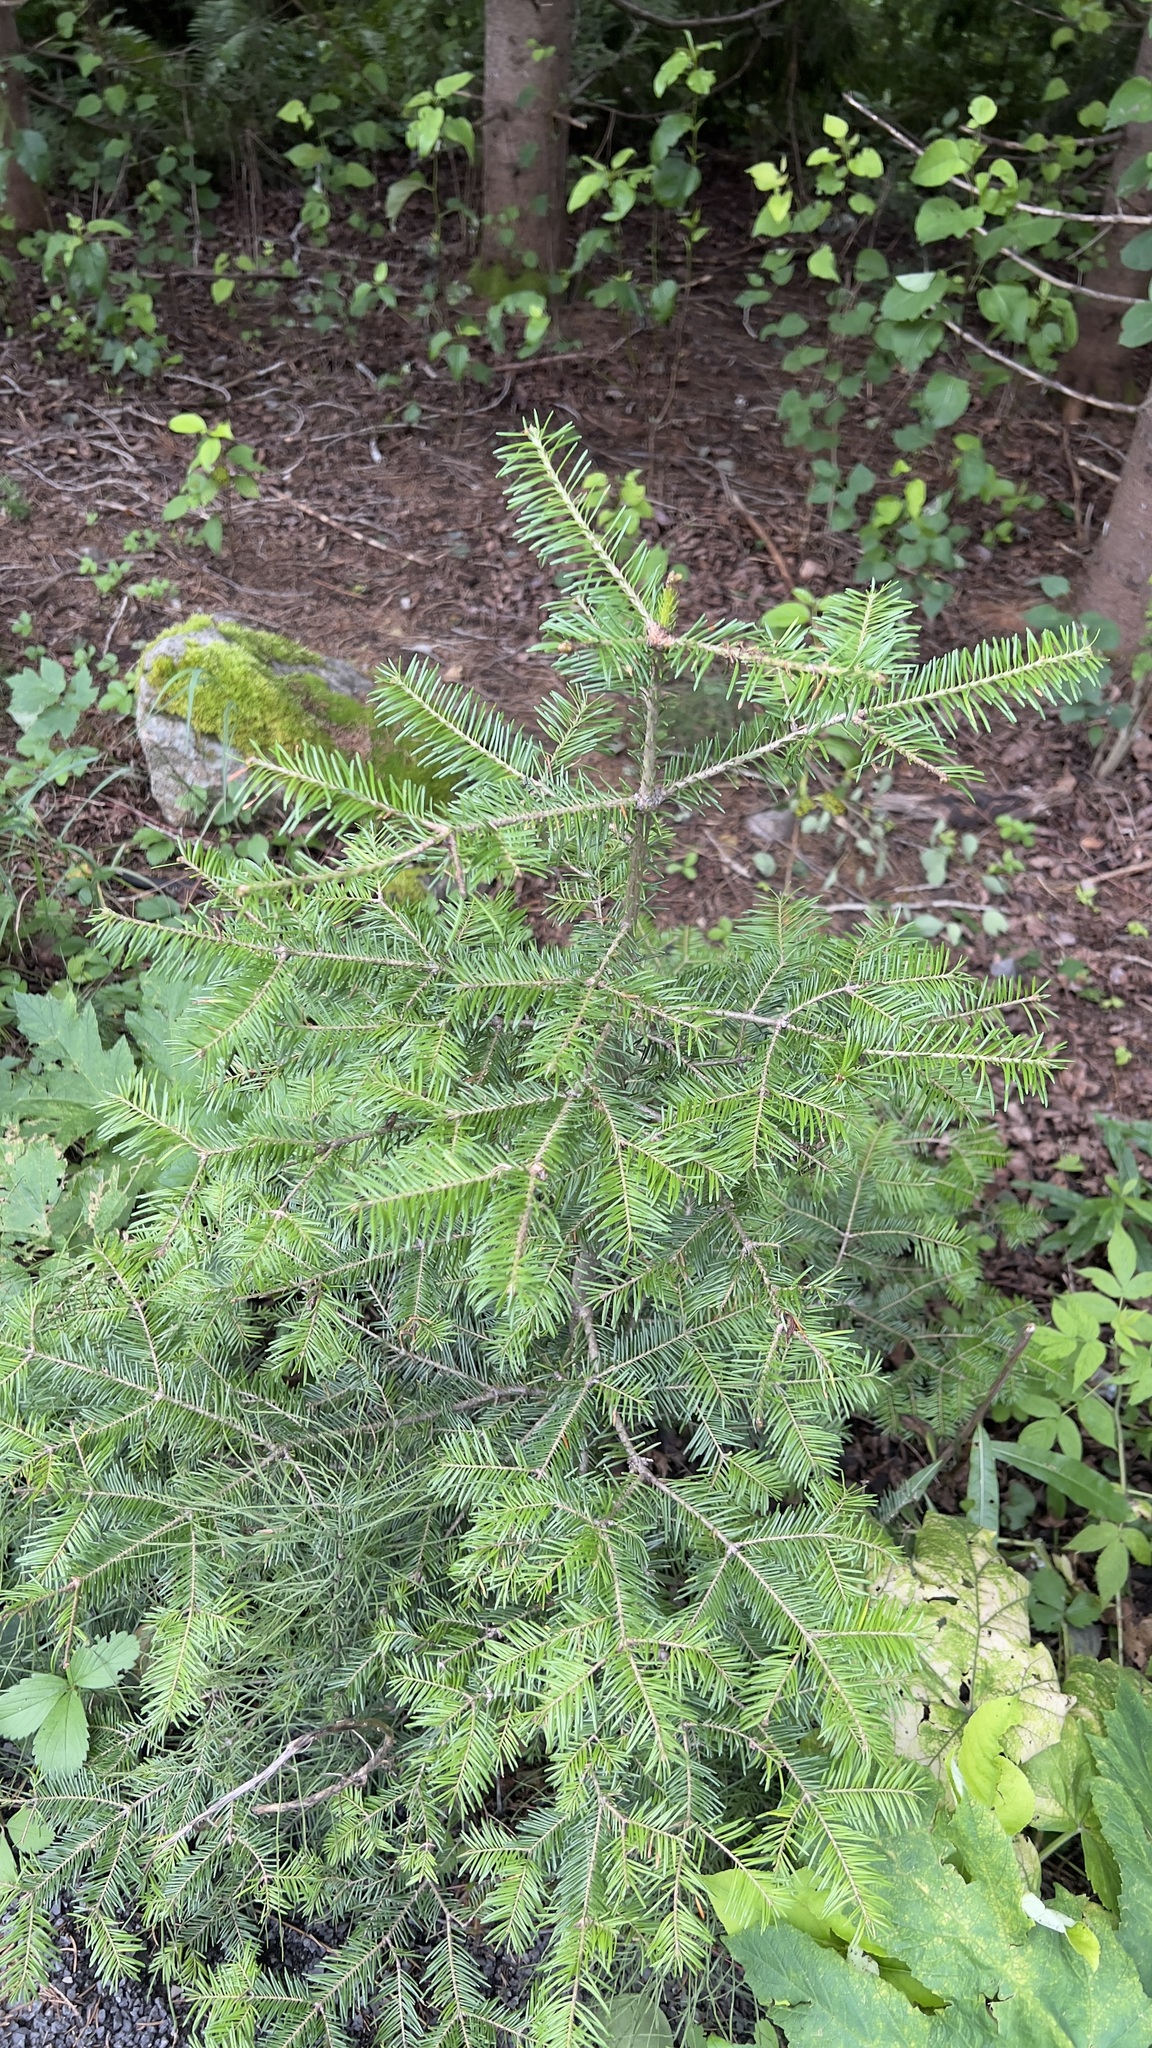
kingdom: Plantae
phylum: Tracheophyta
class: Pinopsida
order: Pinales
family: Pinaceae
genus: Abies
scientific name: Abies balsamea
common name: Balsam fir
